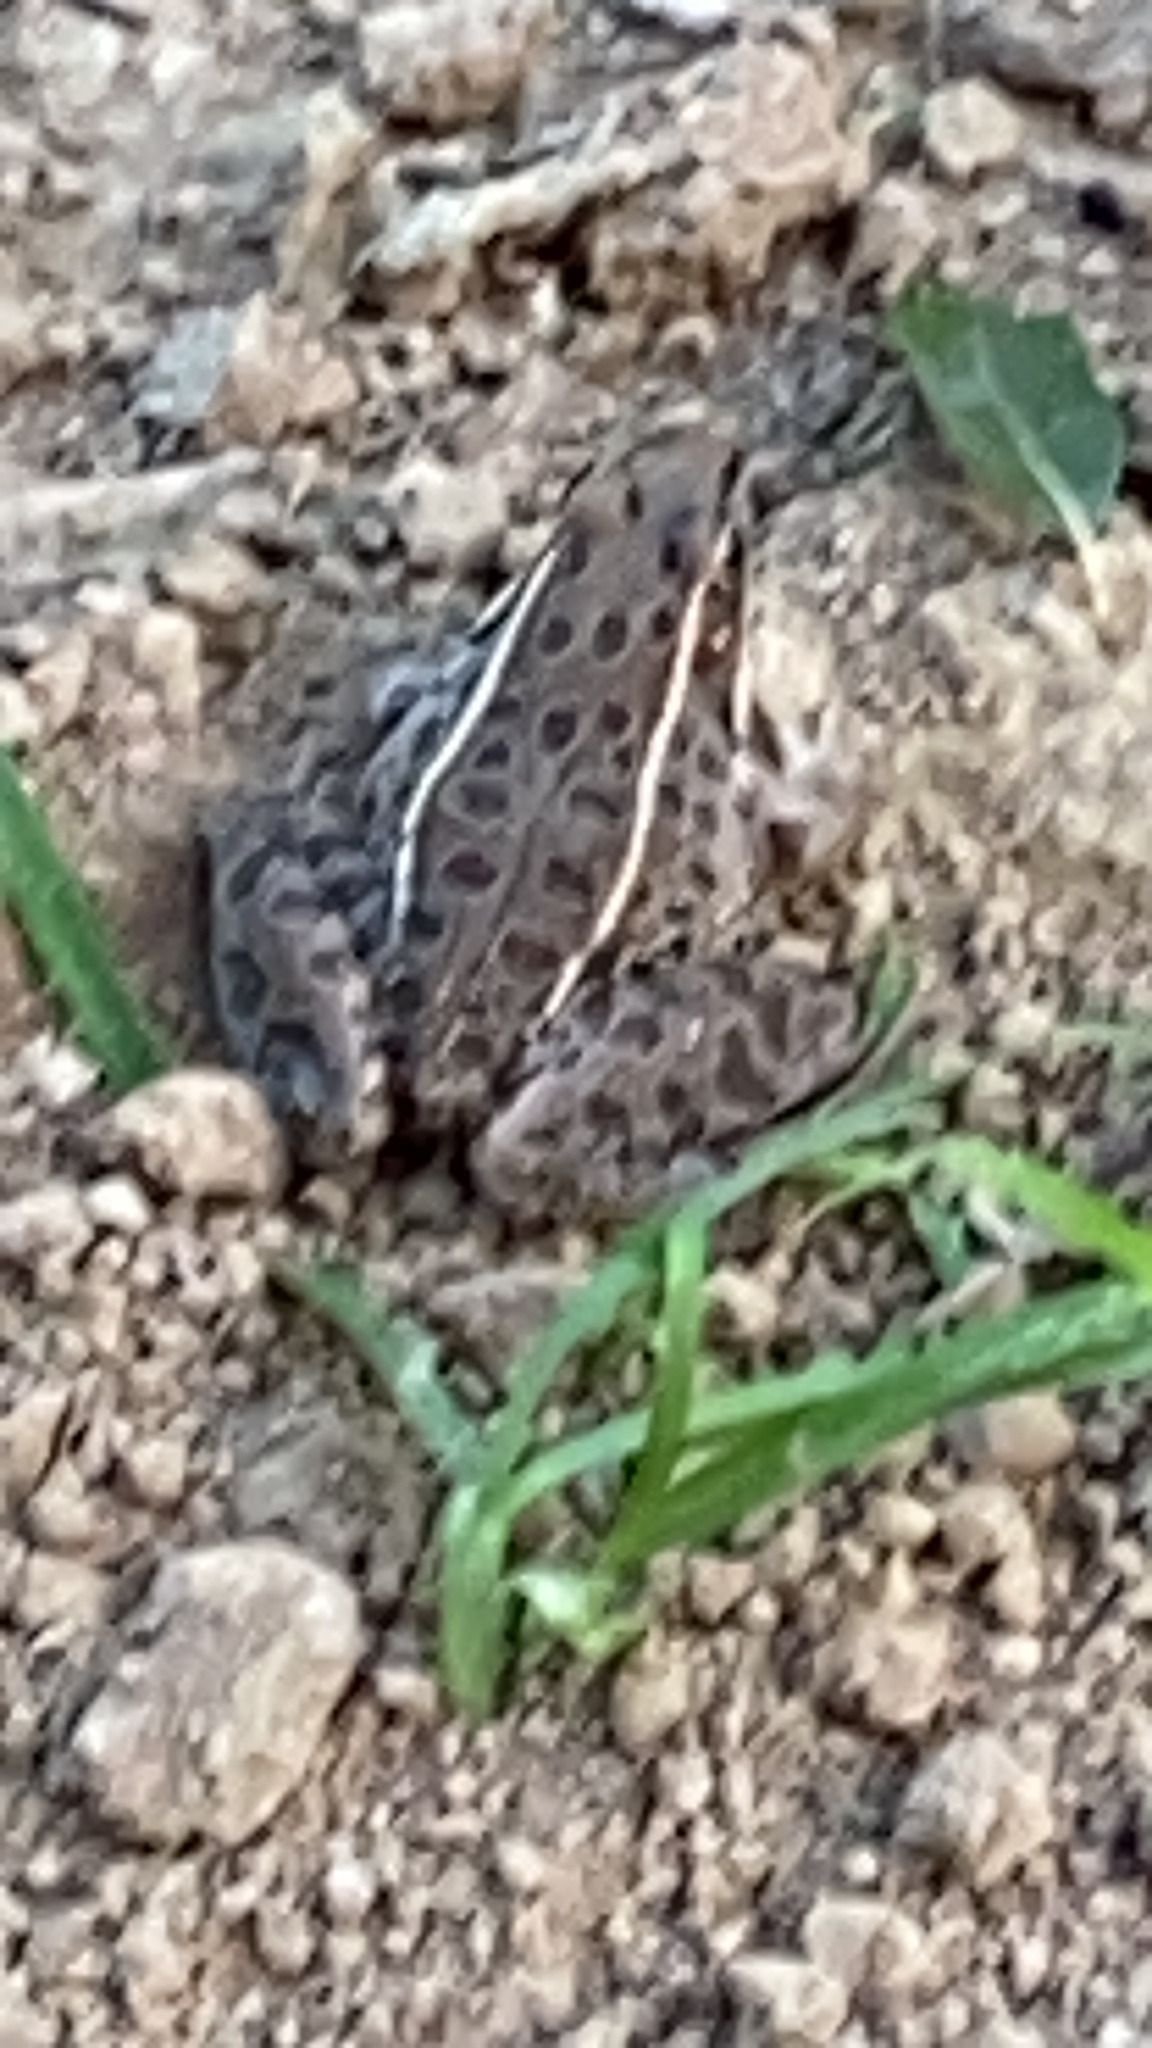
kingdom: Animalia
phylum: Chordata
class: Amphibia
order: Anura
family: Ranidae
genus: Lithobates
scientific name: Lithobates sphenocephalus
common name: Southern leopard frog
